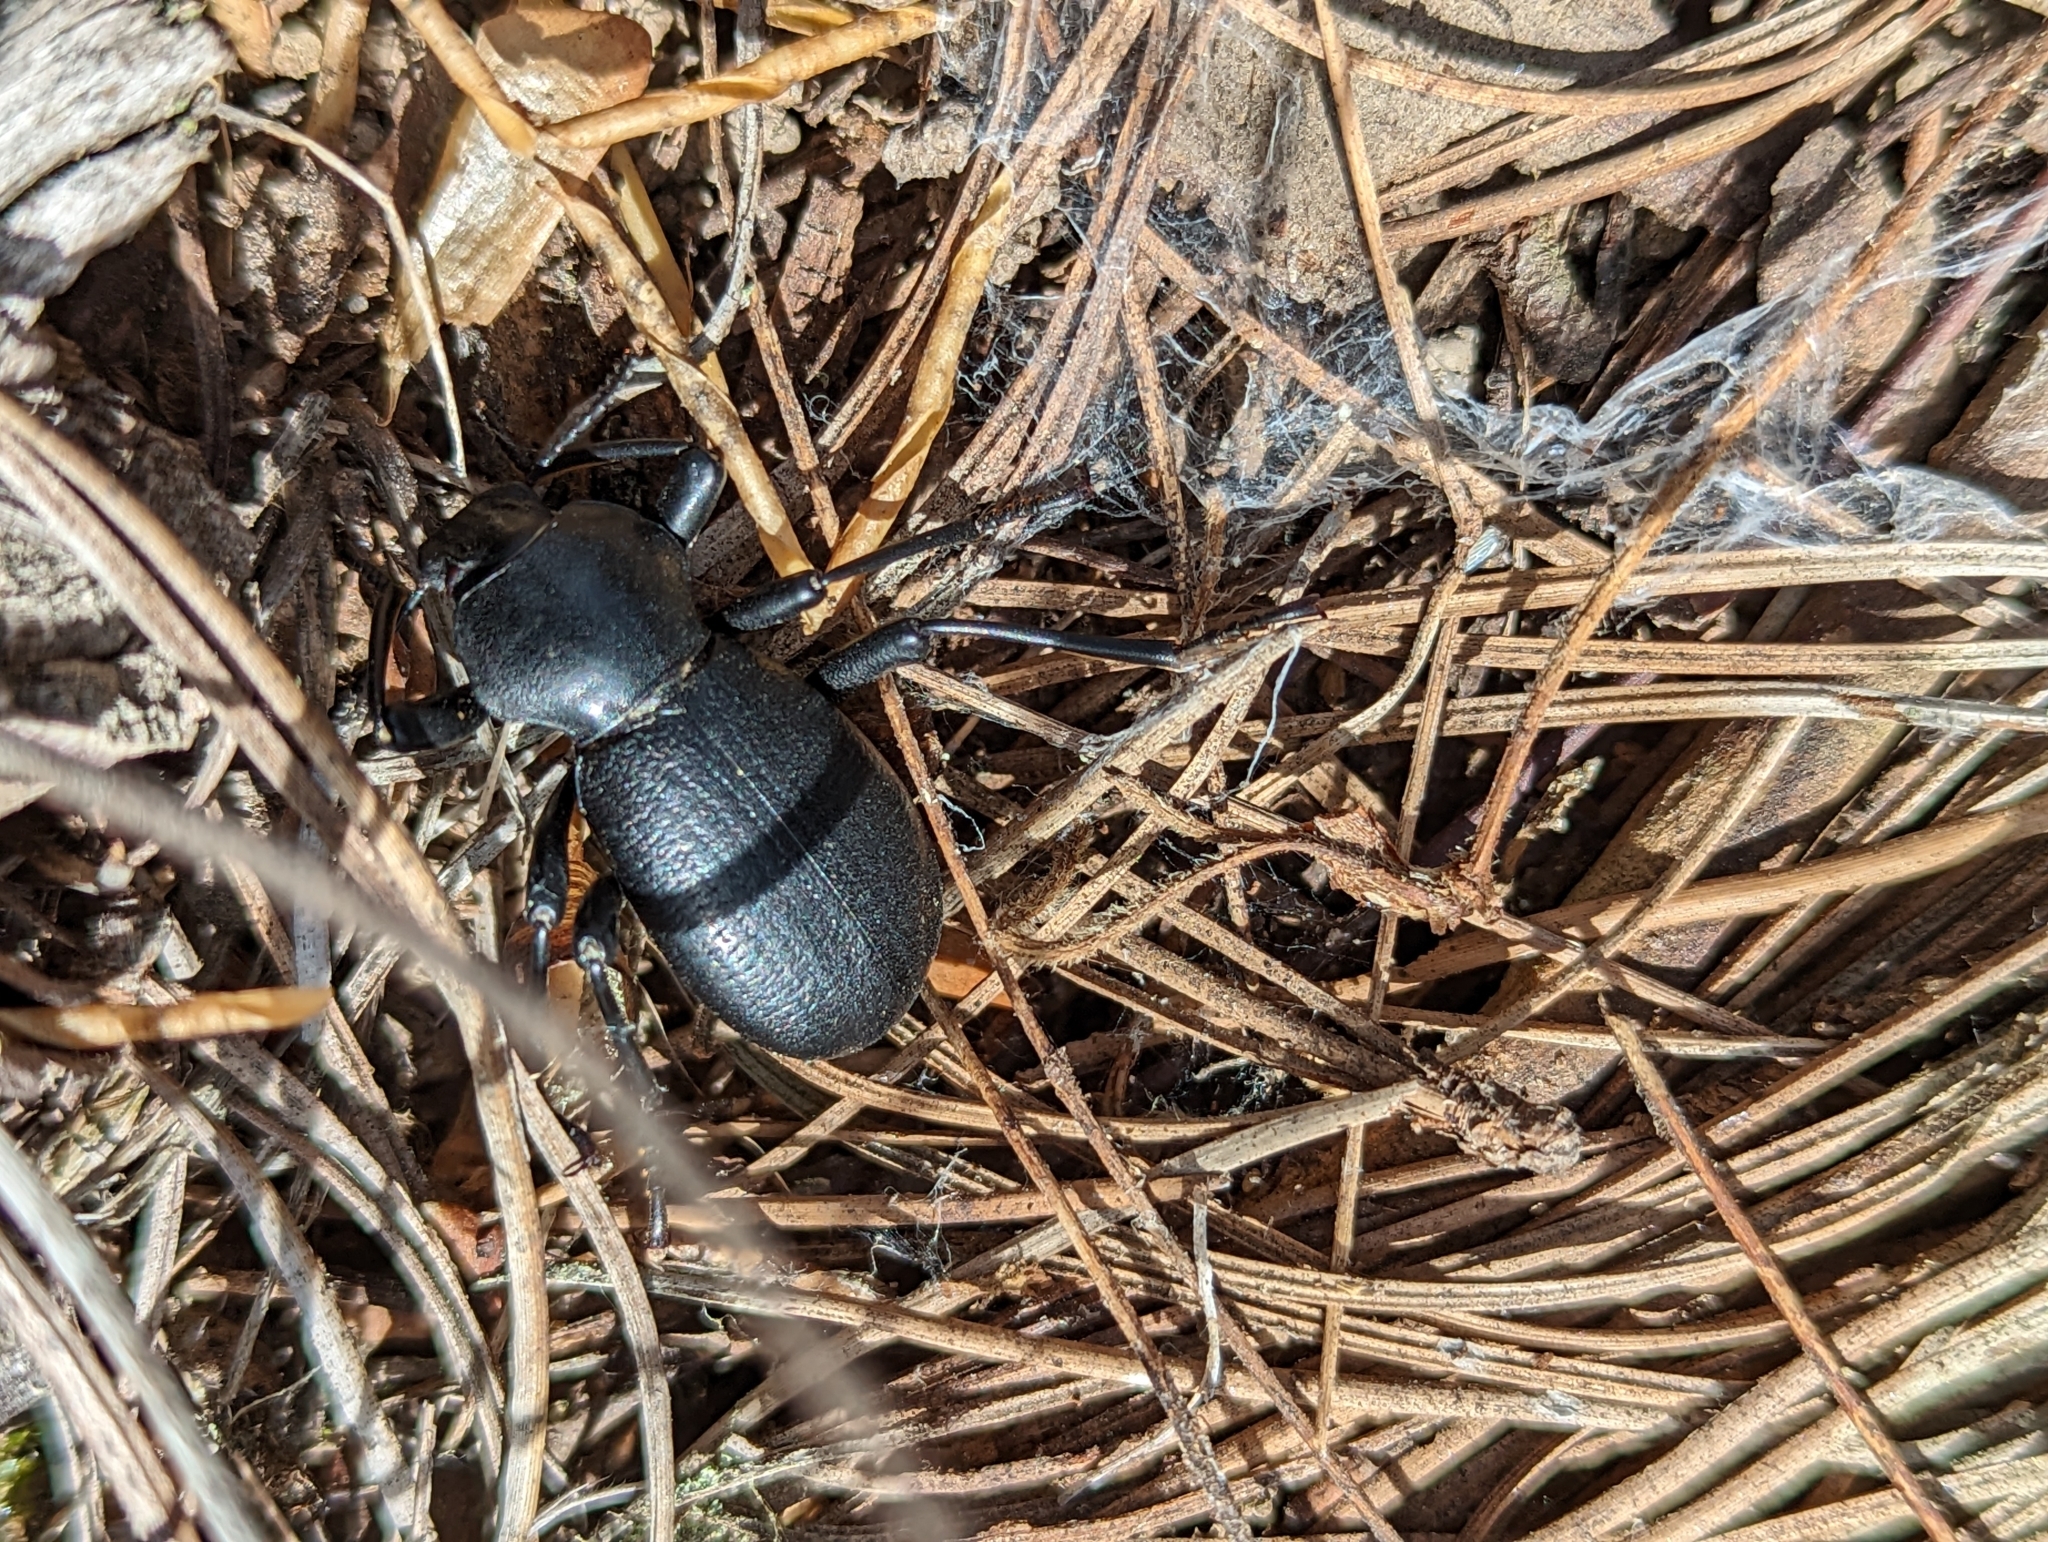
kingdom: Animalia
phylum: Arthropoda
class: Insecta
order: Coleoptera
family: Tenebrionidae
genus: Coelocnemis
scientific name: Coelocnemis dilaticollis
